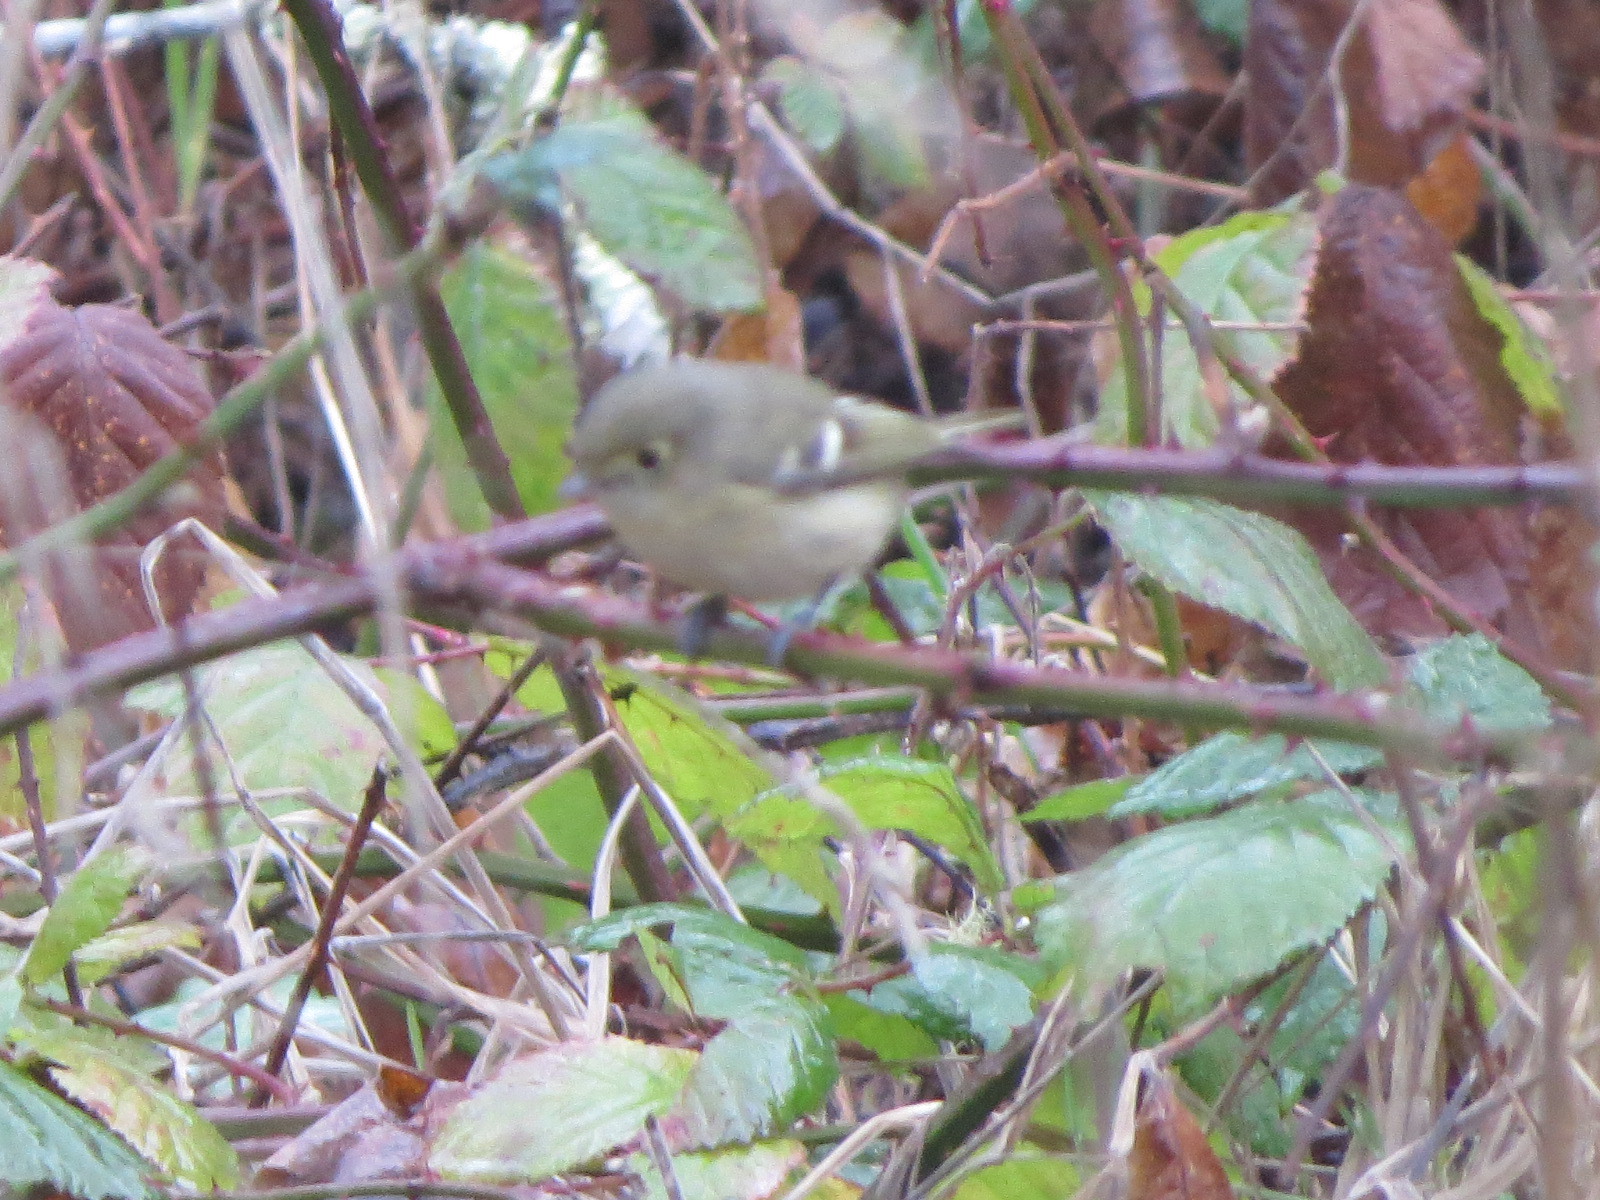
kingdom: Animalia
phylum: Chordata
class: Aves
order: Passeriformes
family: Vireonidae
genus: Vireo
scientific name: Vireo huttoni
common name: Hutton's vireo
